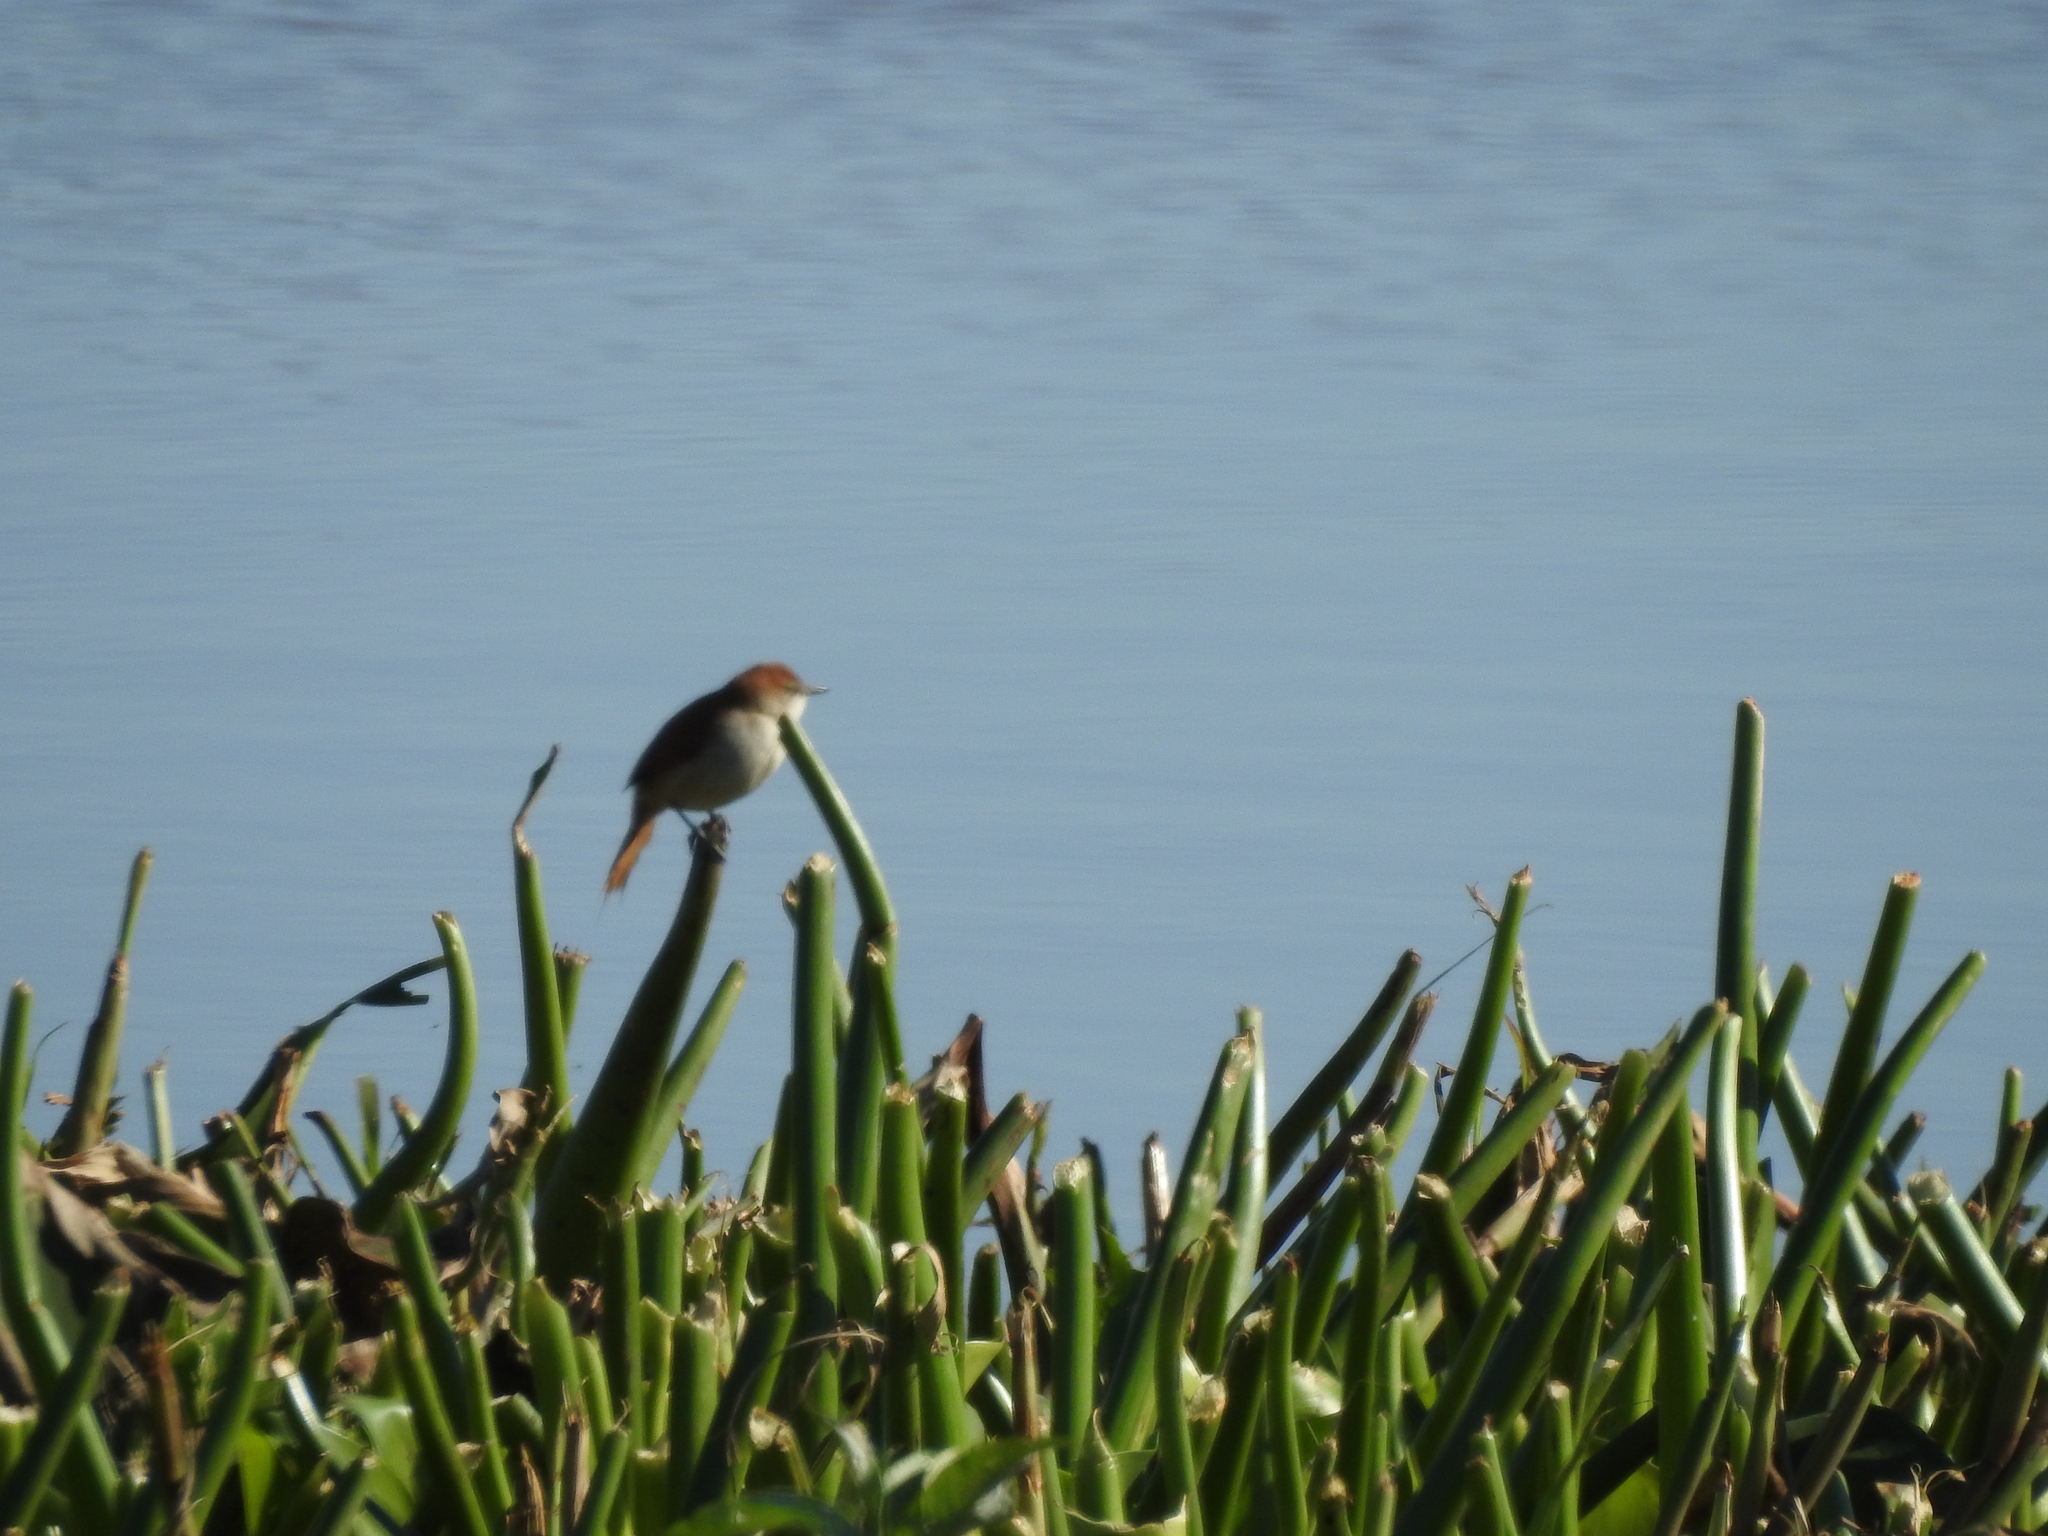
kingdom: Animalia
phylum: Chordata
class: Aves
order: Passeriformes
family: Furnariidae
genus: Certhiaxis
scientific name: Certhiaxis cinnamomeus
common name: Yellow-chinned spinetail
